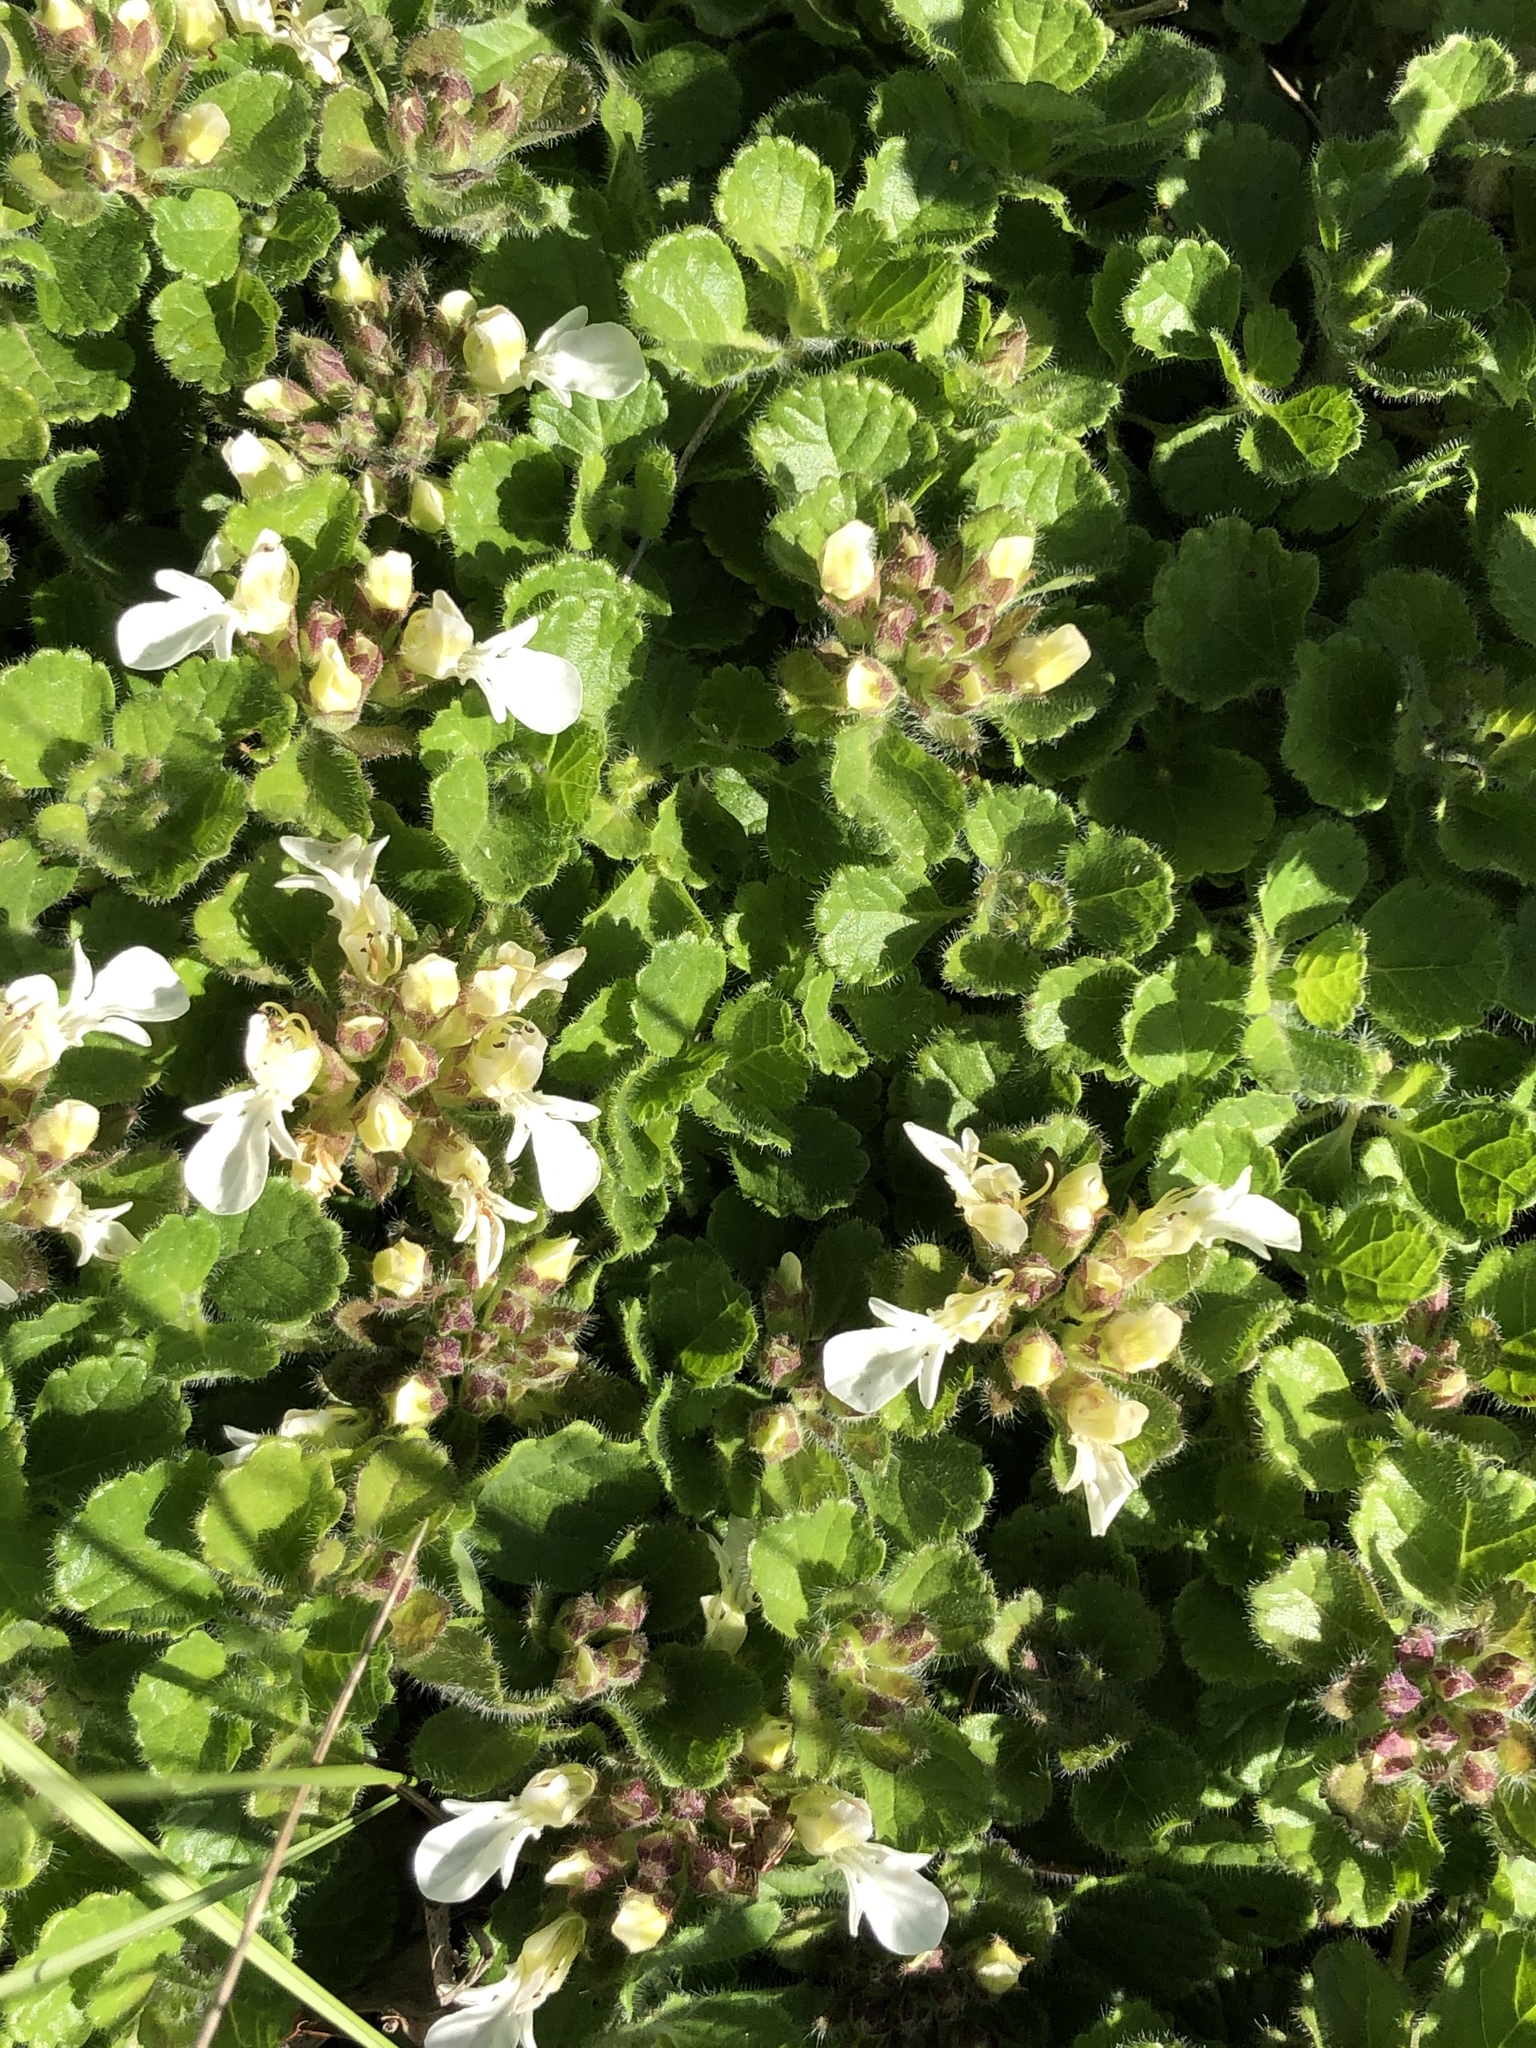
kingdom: Plantae
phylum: Tracheophyta
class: Magnoliopsida
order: Lamiales
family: Lamiaceae
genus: Teucrium
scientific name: Teucrium pyrenaicum
